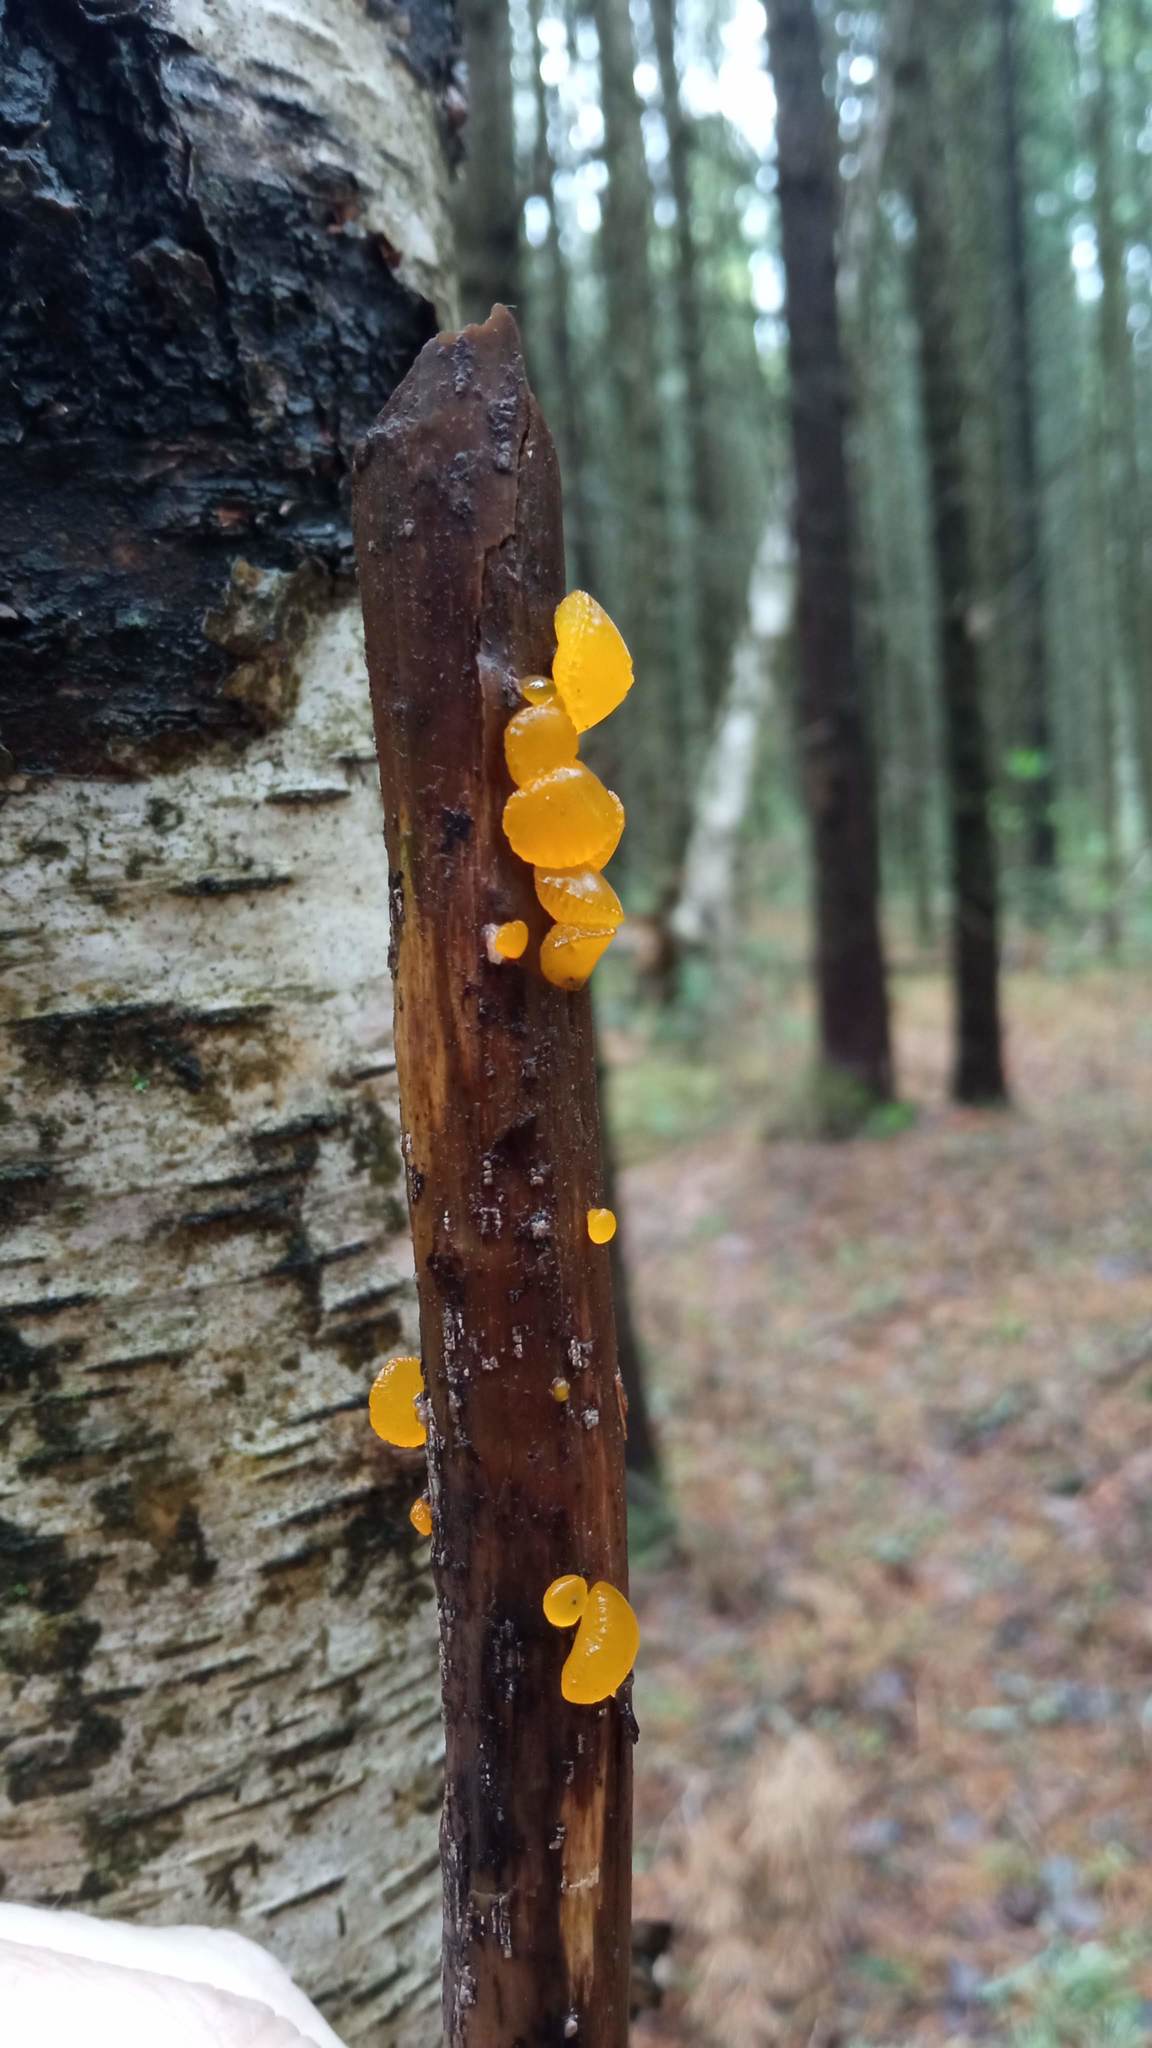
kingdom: Fungi
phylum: Basidiomycota
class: Dacrymycetes
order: Dacrymycetales
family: Dacrymycetaceae
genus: Dacrymyces
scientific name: Dacrymyces chrysospermus
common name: Orange jelly spot
